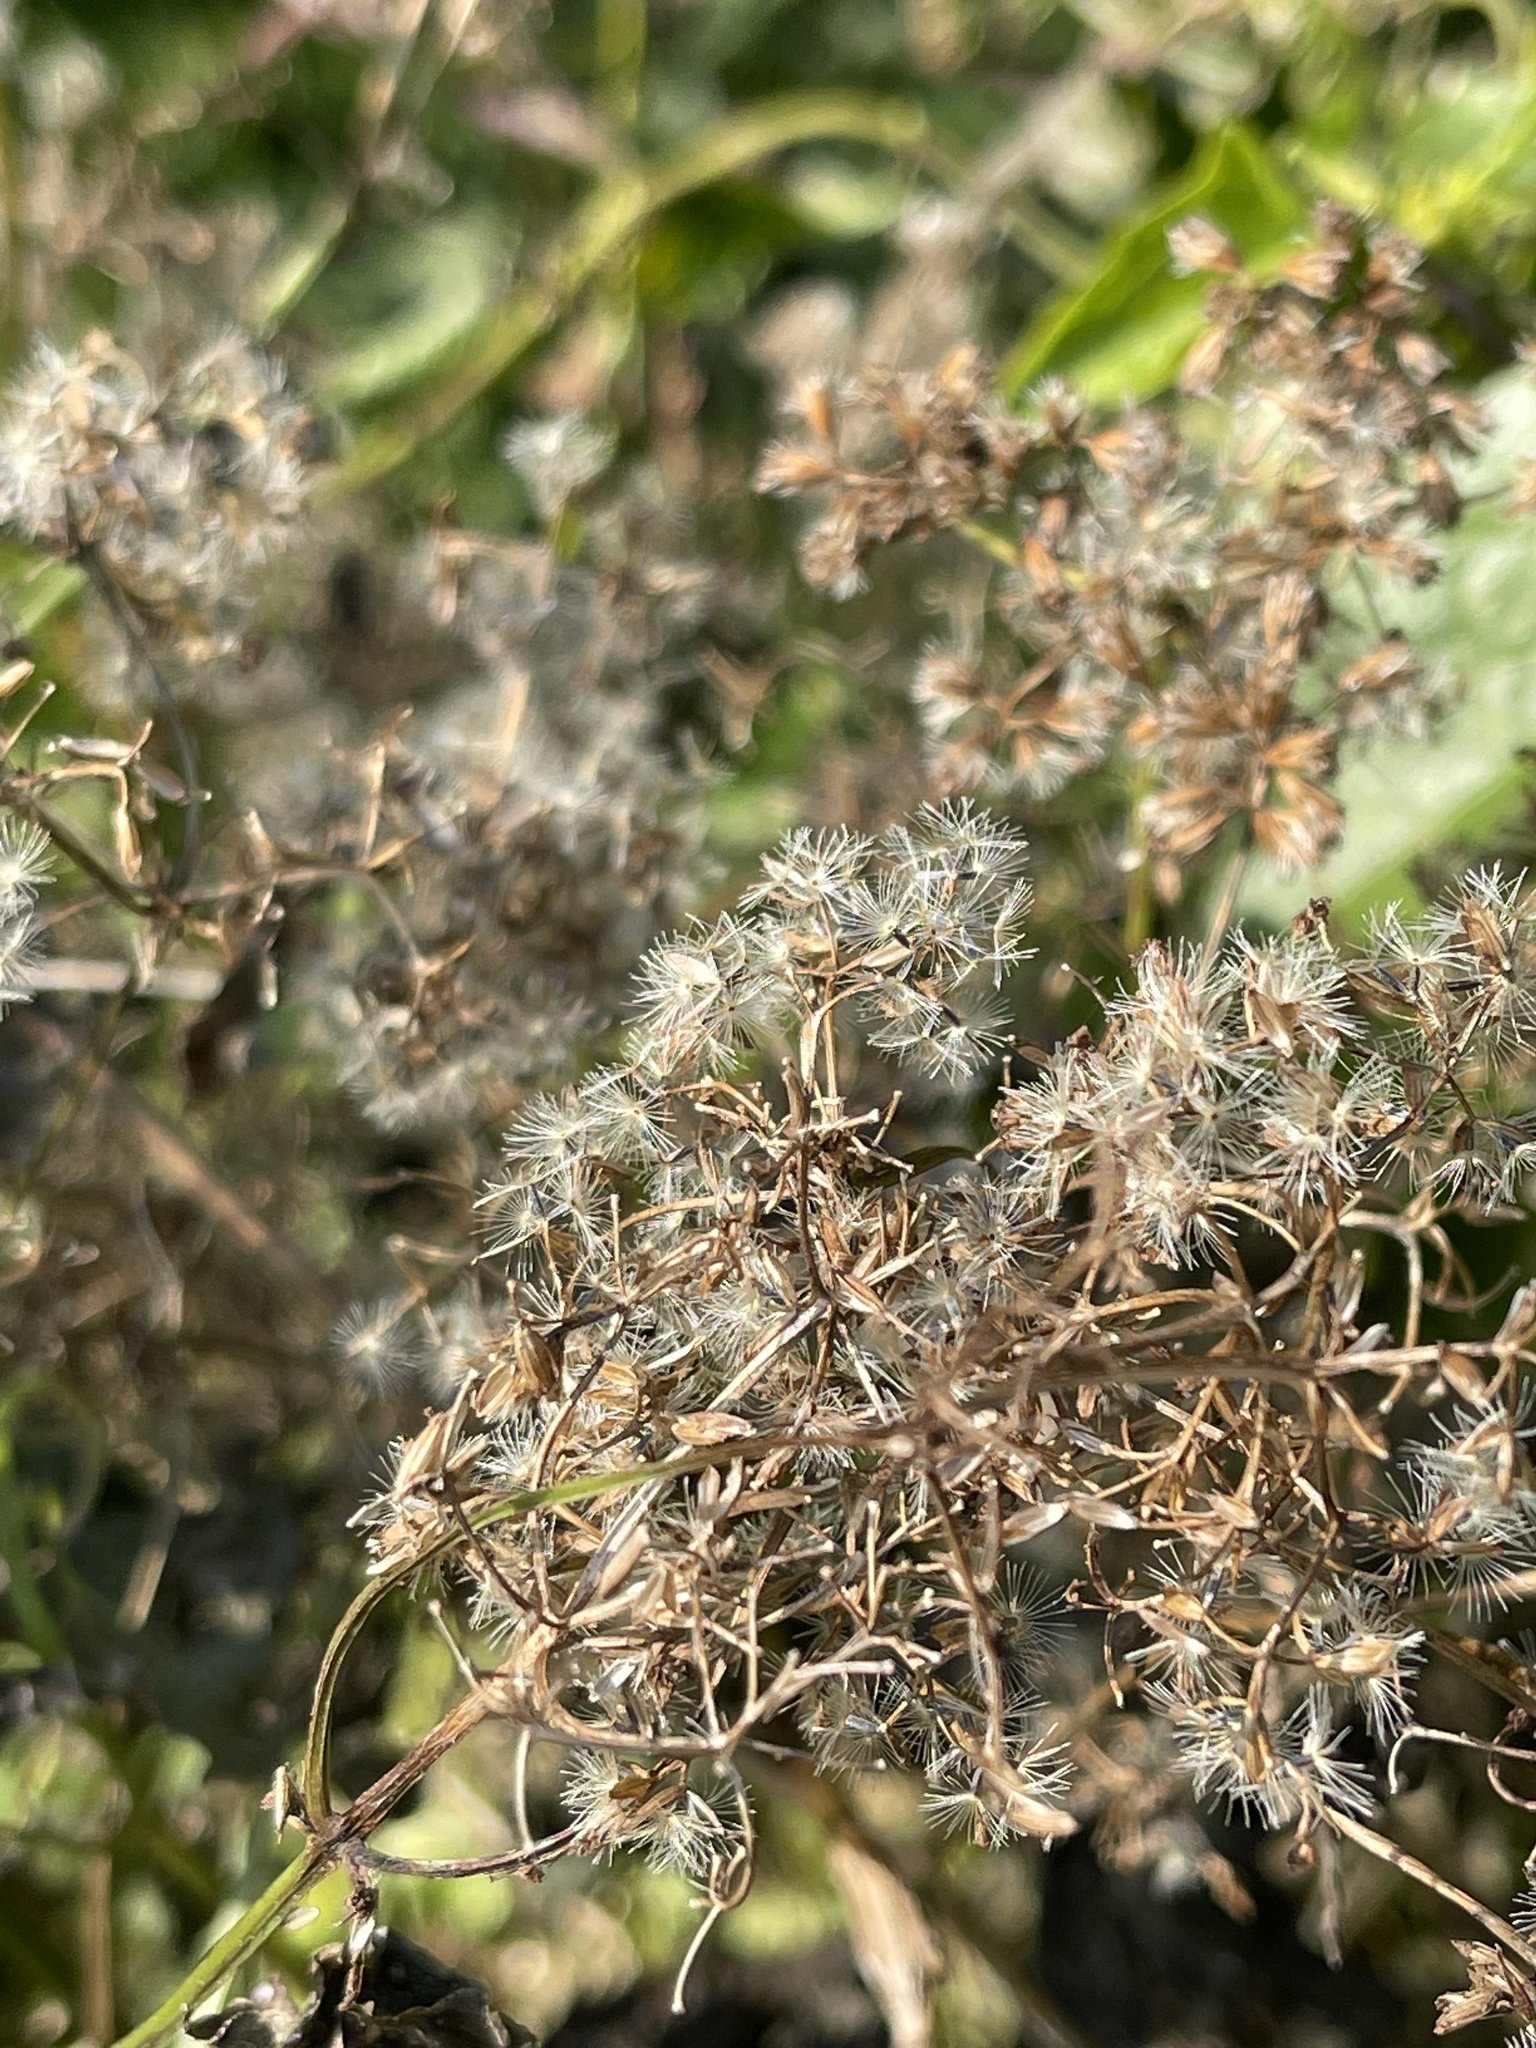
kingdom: Plantae
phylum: Tracheophyta
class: Magnoliopsida
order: Asterales
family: Asteraceae
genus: Mikania
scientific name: Mikania micrantha
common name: Mile-a-minute
